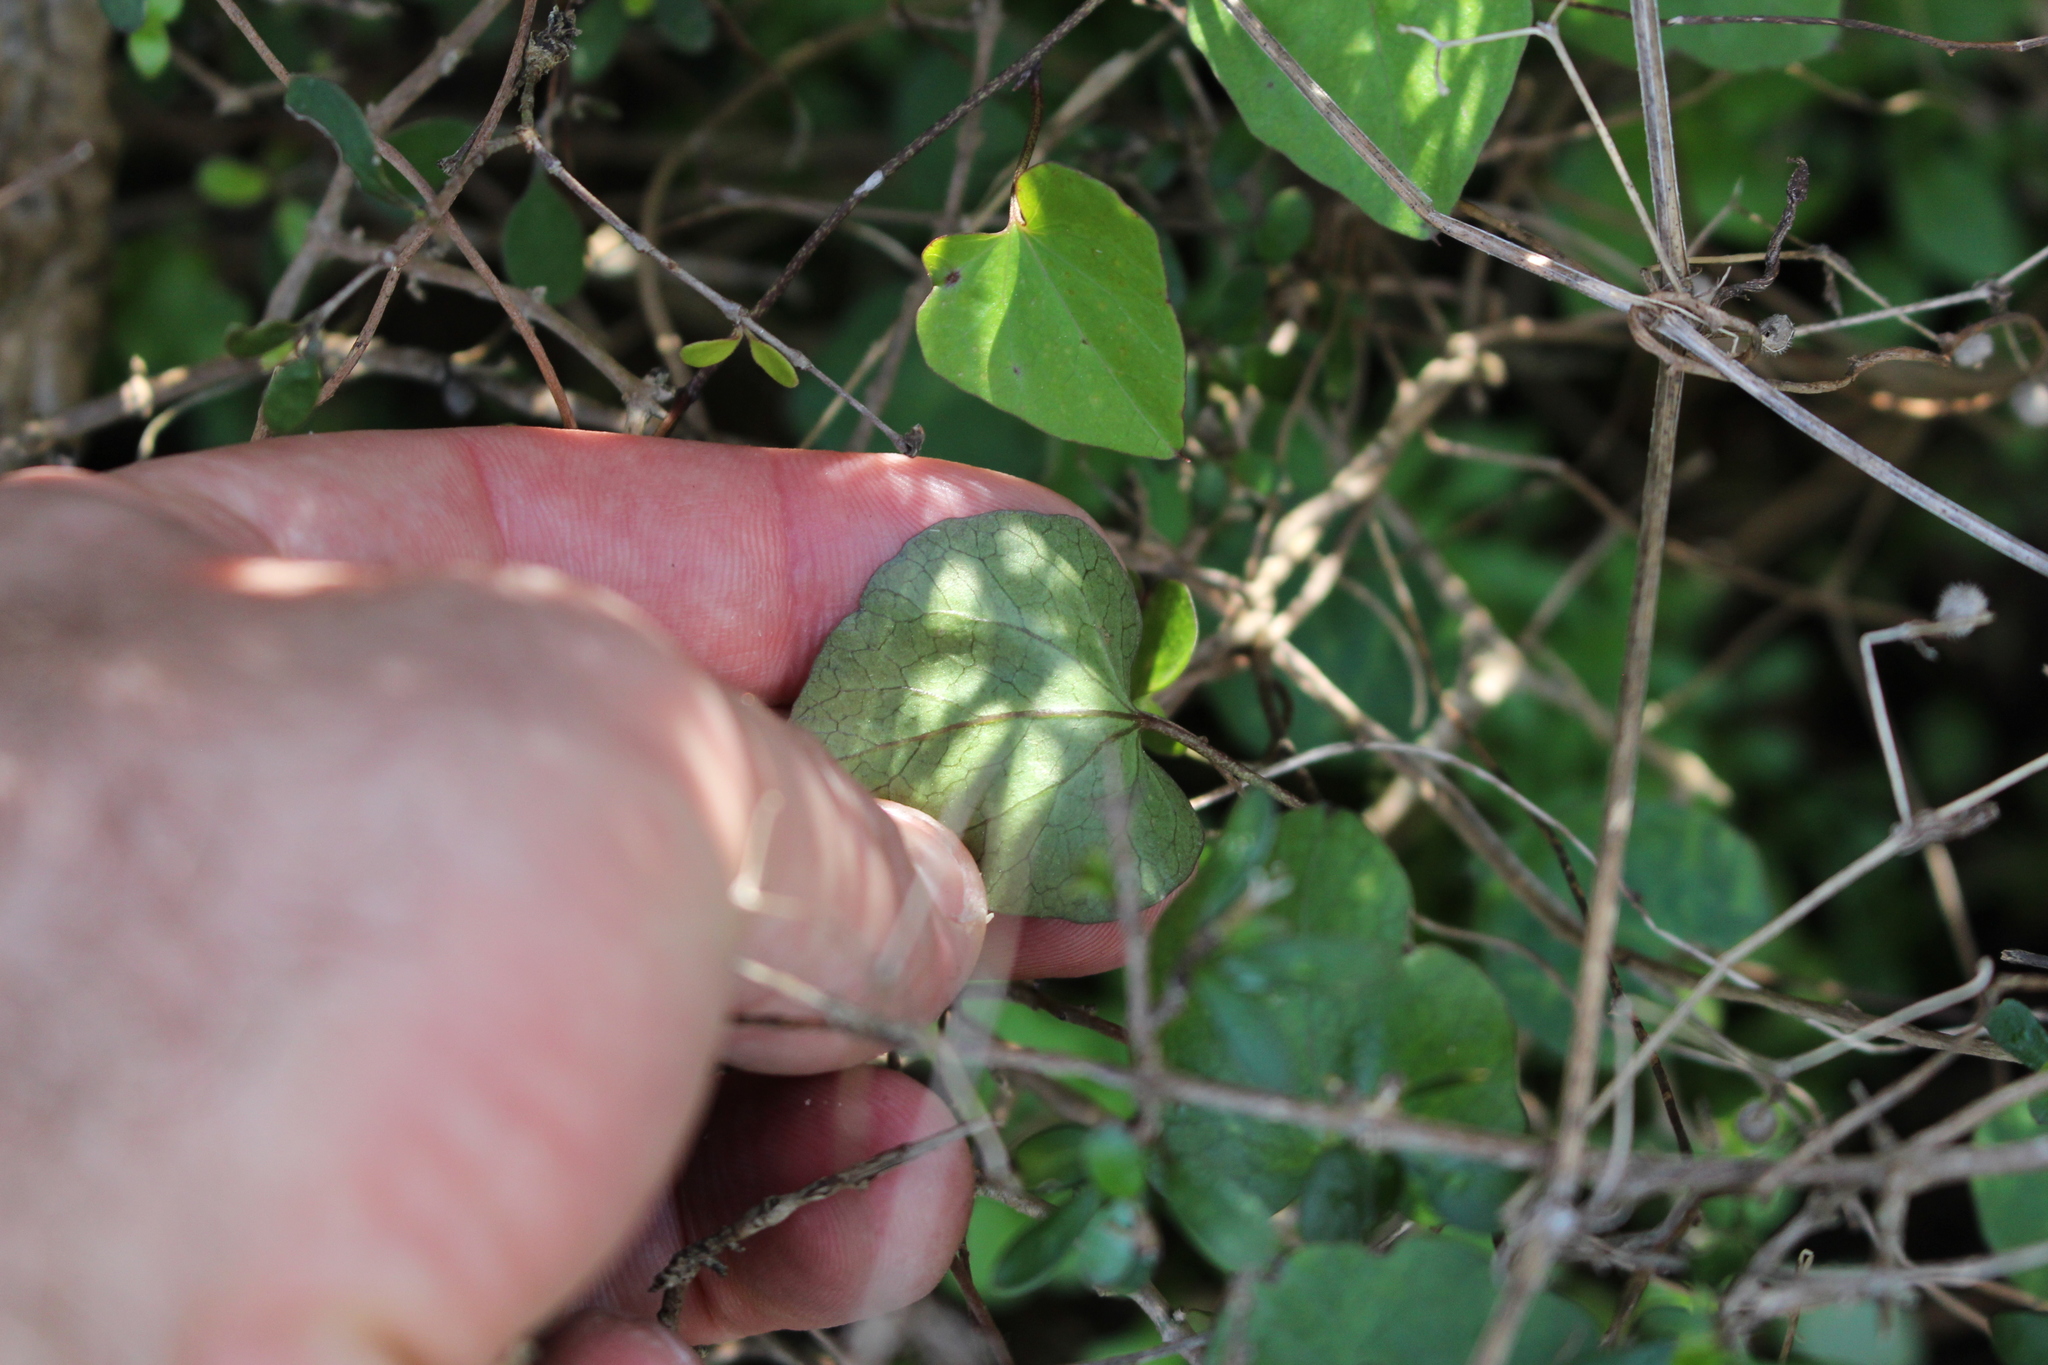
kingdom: Plantae
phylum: Tracheophyta
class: Magnoliopsida
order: Solanales
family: Convolvulaceae
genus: Calystegia
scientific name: Calystegia tuguriorum
